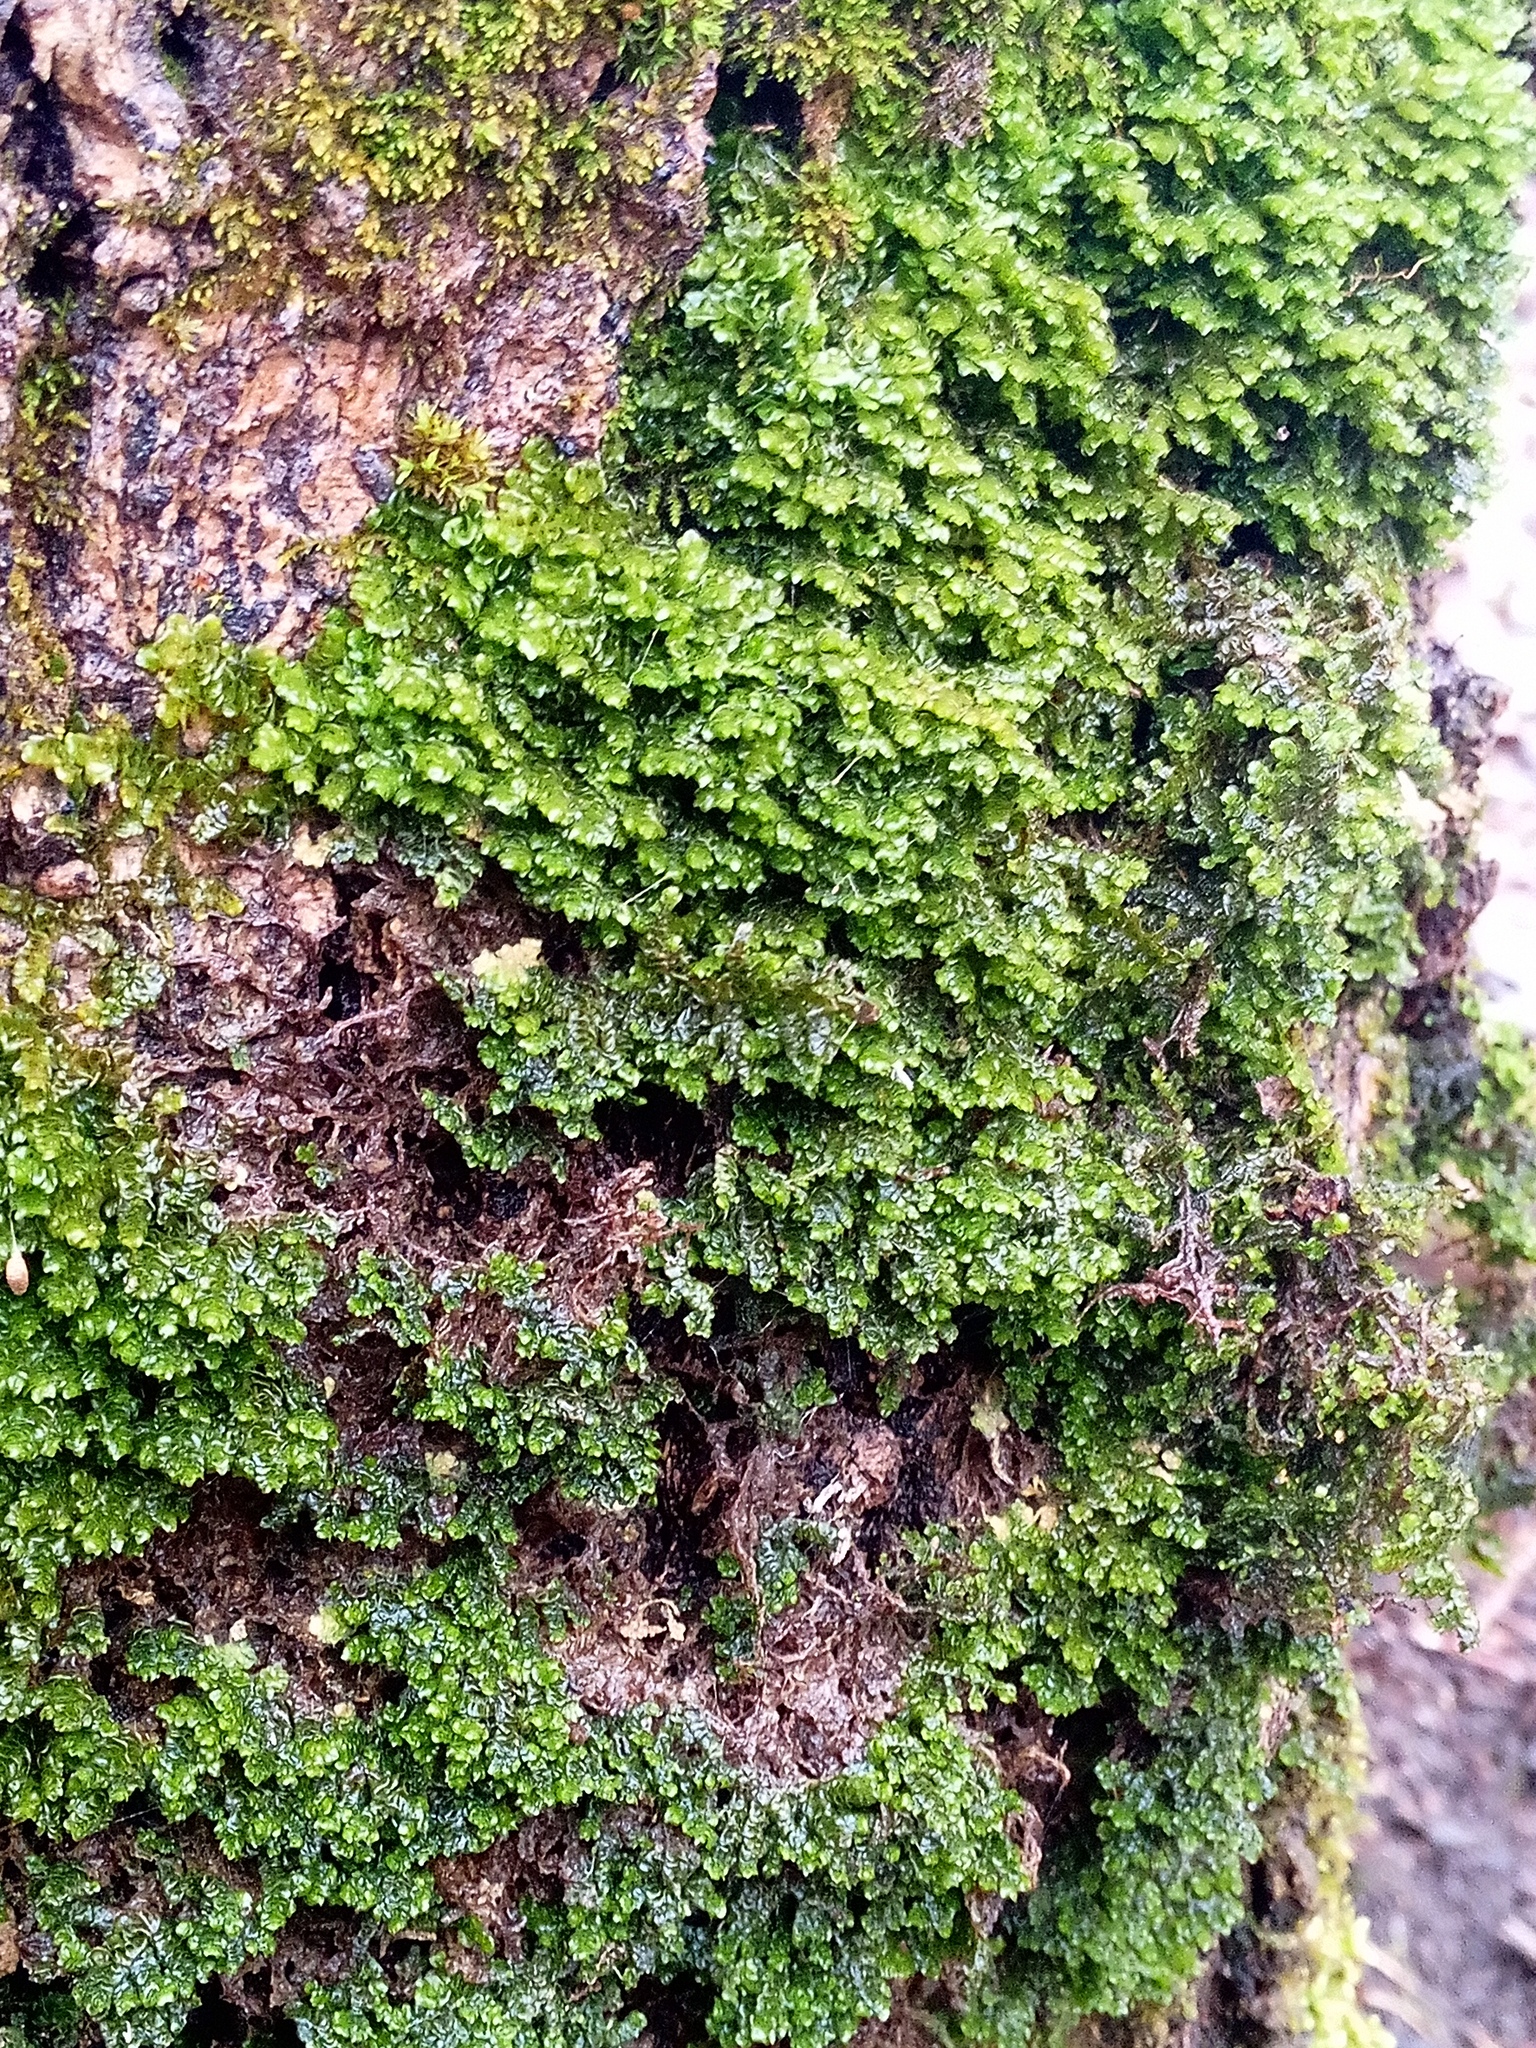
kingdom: Plantae
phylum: Marchantiophyta
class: Jungermanniopsida
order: Porellales
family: Porellaceae
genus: Porella
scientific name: Porella platyphylla
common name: Wall scalewort
